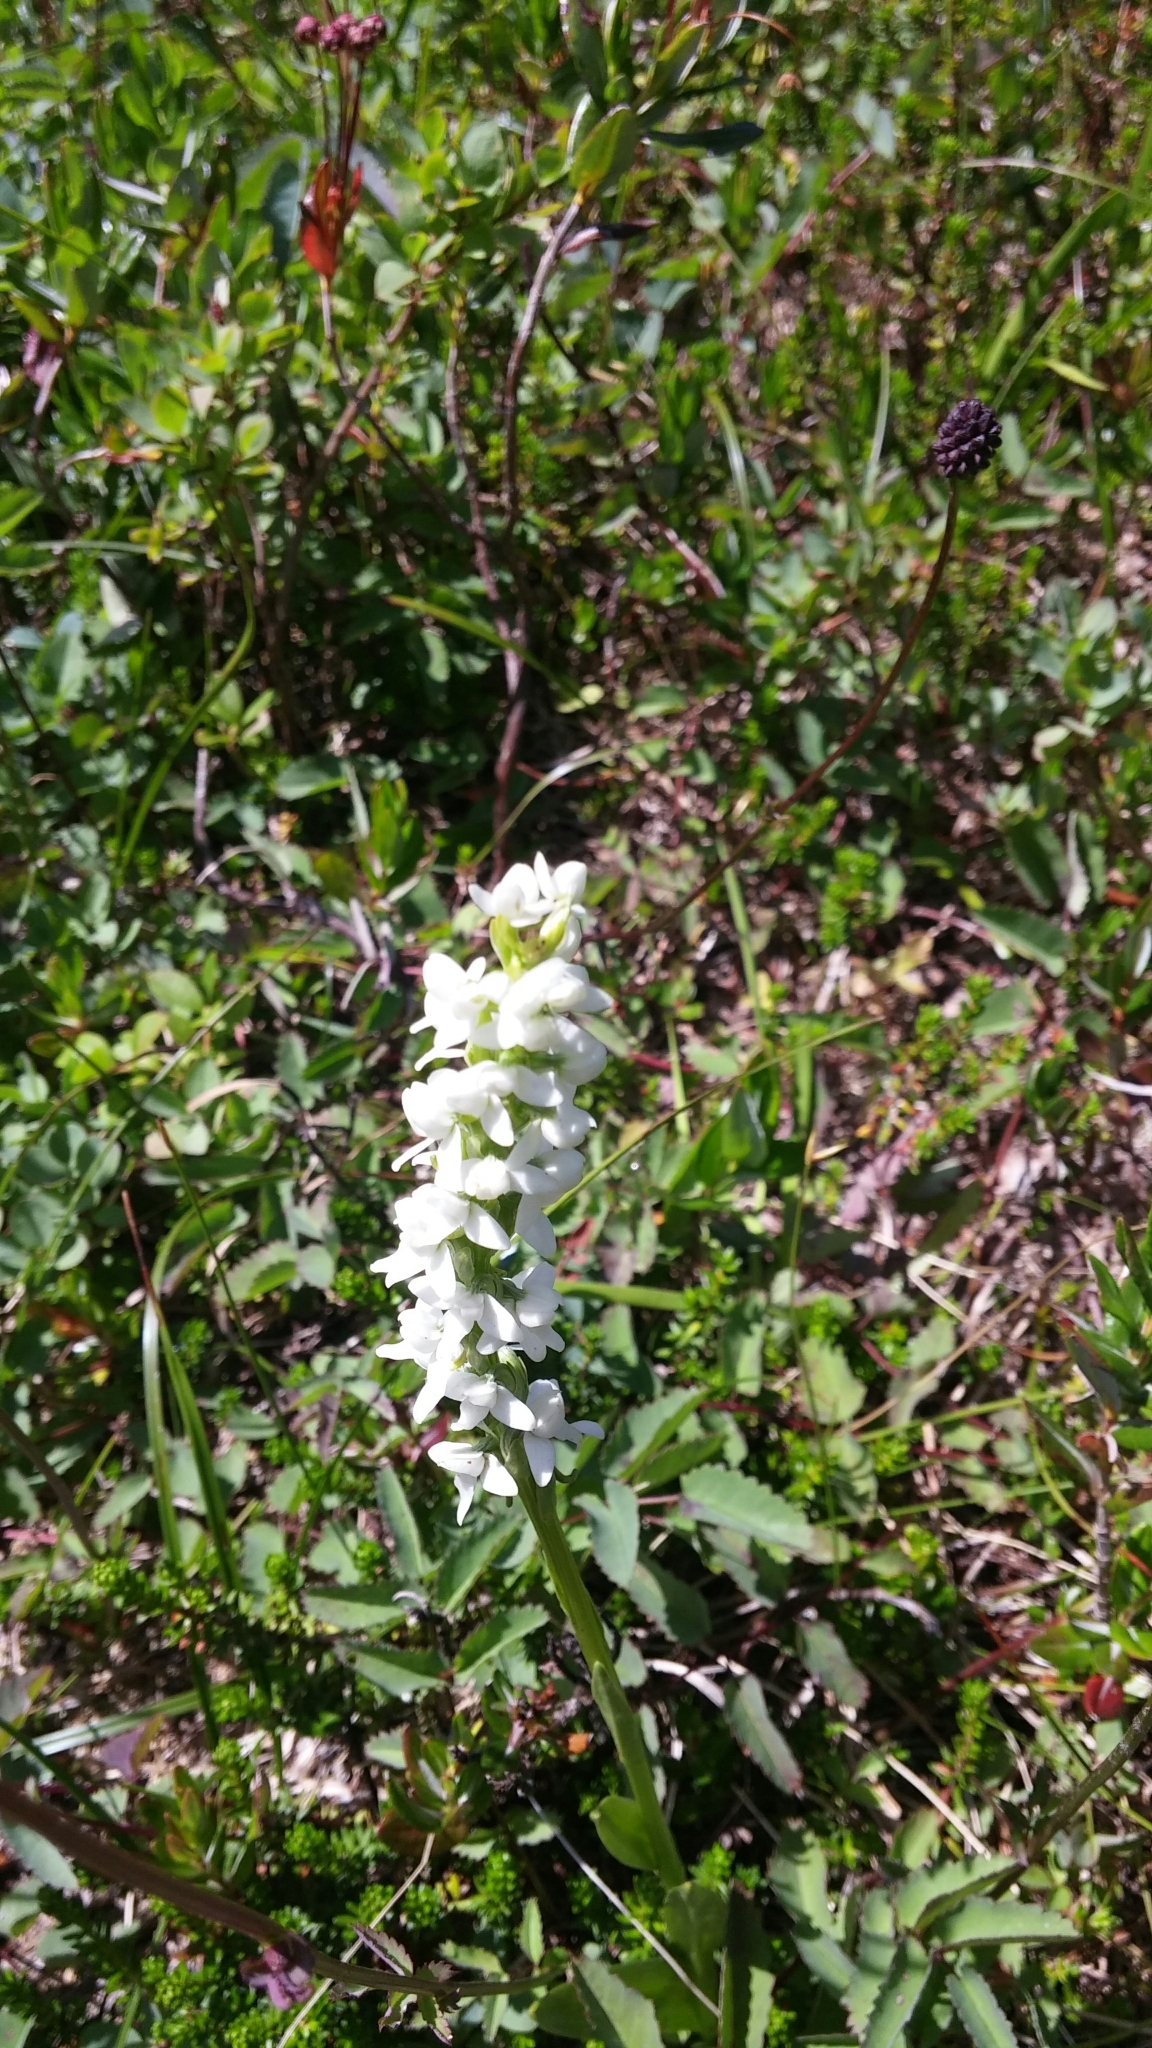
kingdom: Plantae
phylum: Tracheophyta
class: Liliopsida
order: Asparagales
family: Orchidaceae
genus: Platanthera
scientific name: Platanthera dilatata
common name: Bog candles
